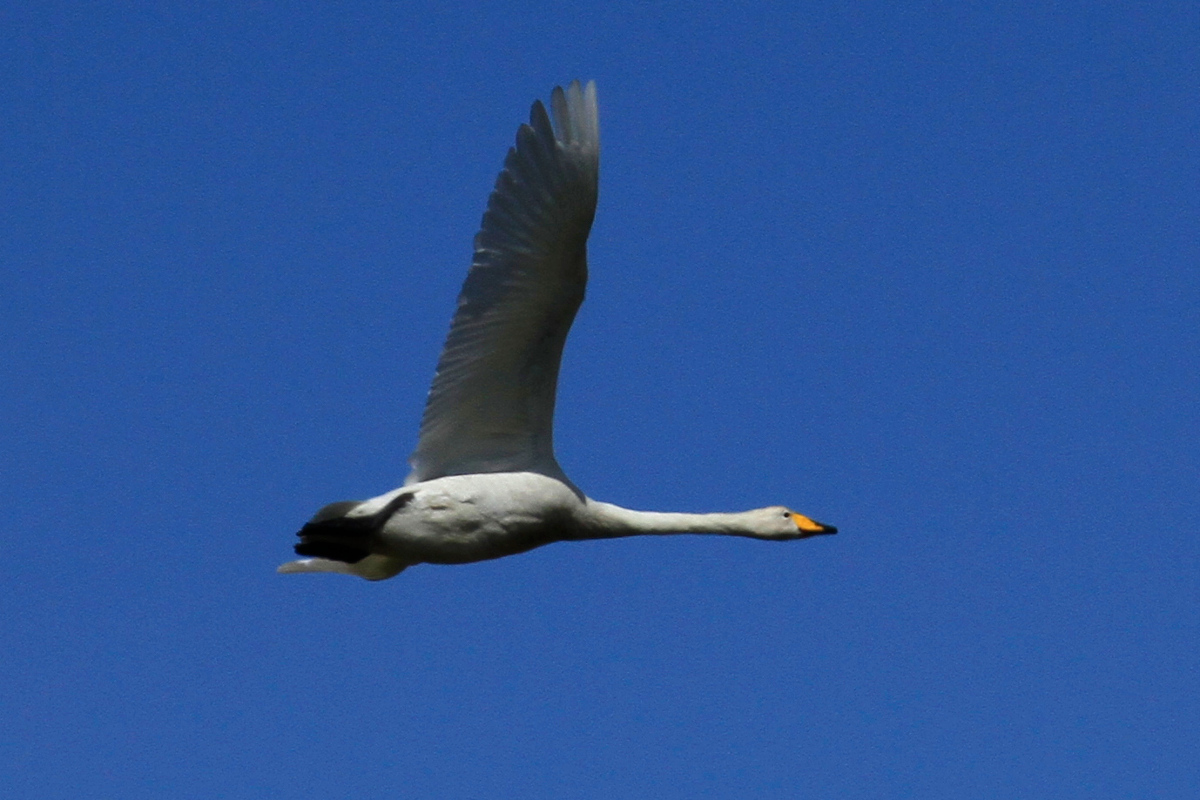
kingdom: Animalia
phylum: Chordata
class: Aves
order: Anseriformes
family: Anatidae
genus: Cygnus
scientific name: Cygnus cygnus
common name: Whooper swan
